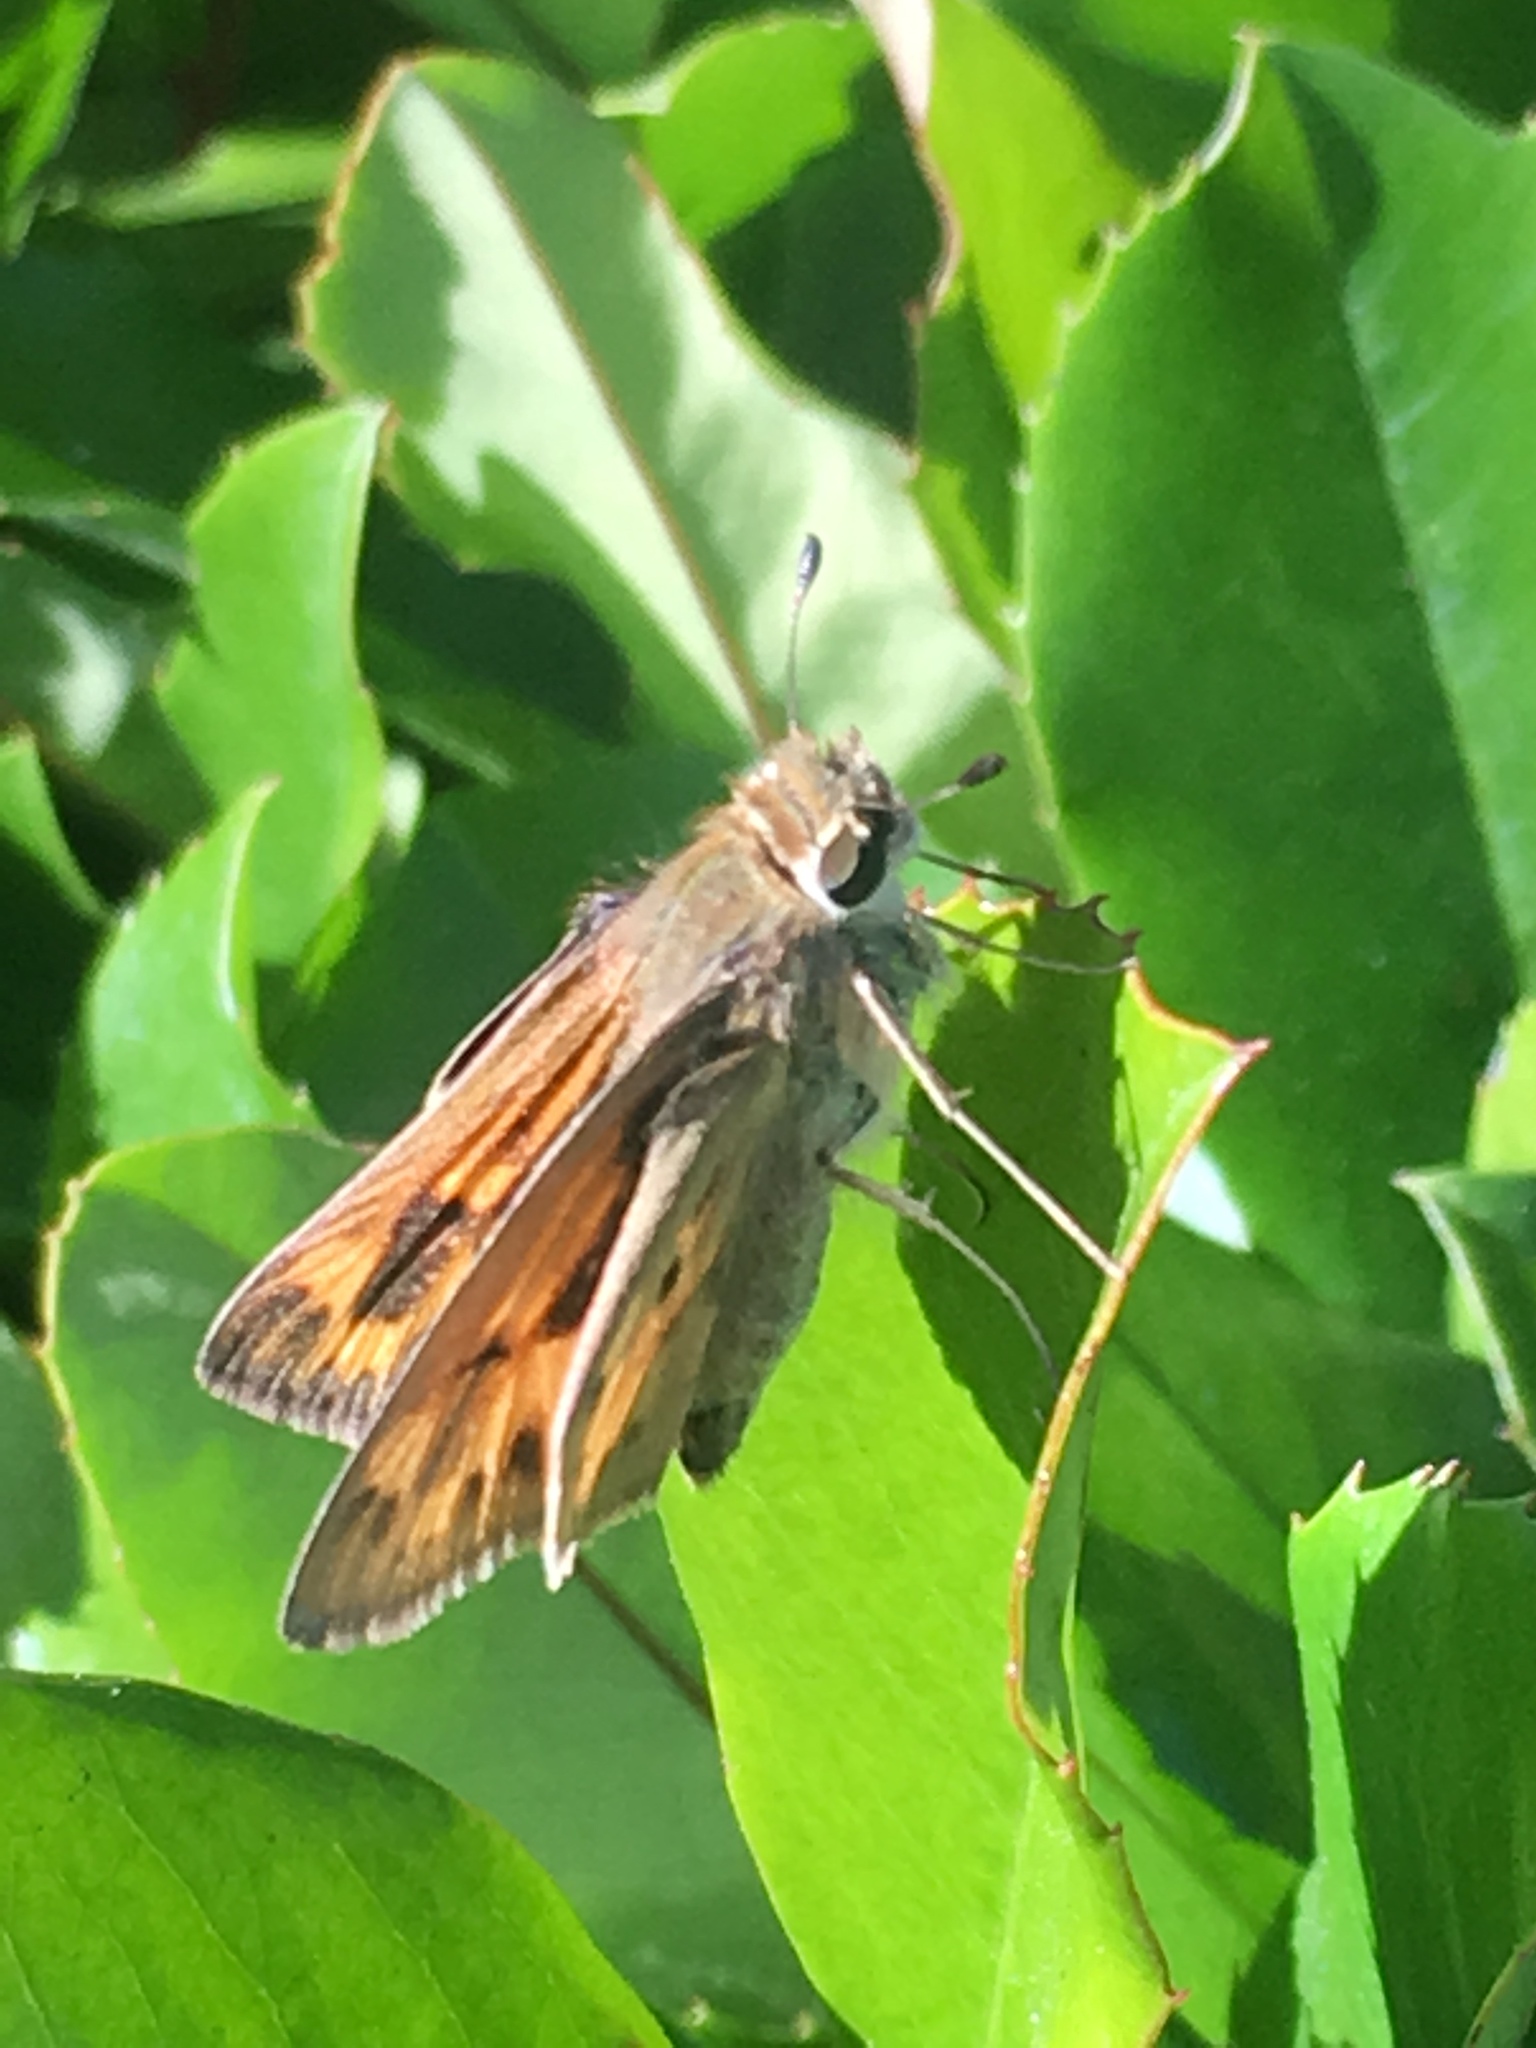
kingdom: Animalia
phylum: Arthropoda
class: Insecta
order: Lepidoptera
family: Hesperiidae
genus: Hylephila
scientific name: Hylephila phyleus
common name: Fiery skipper
